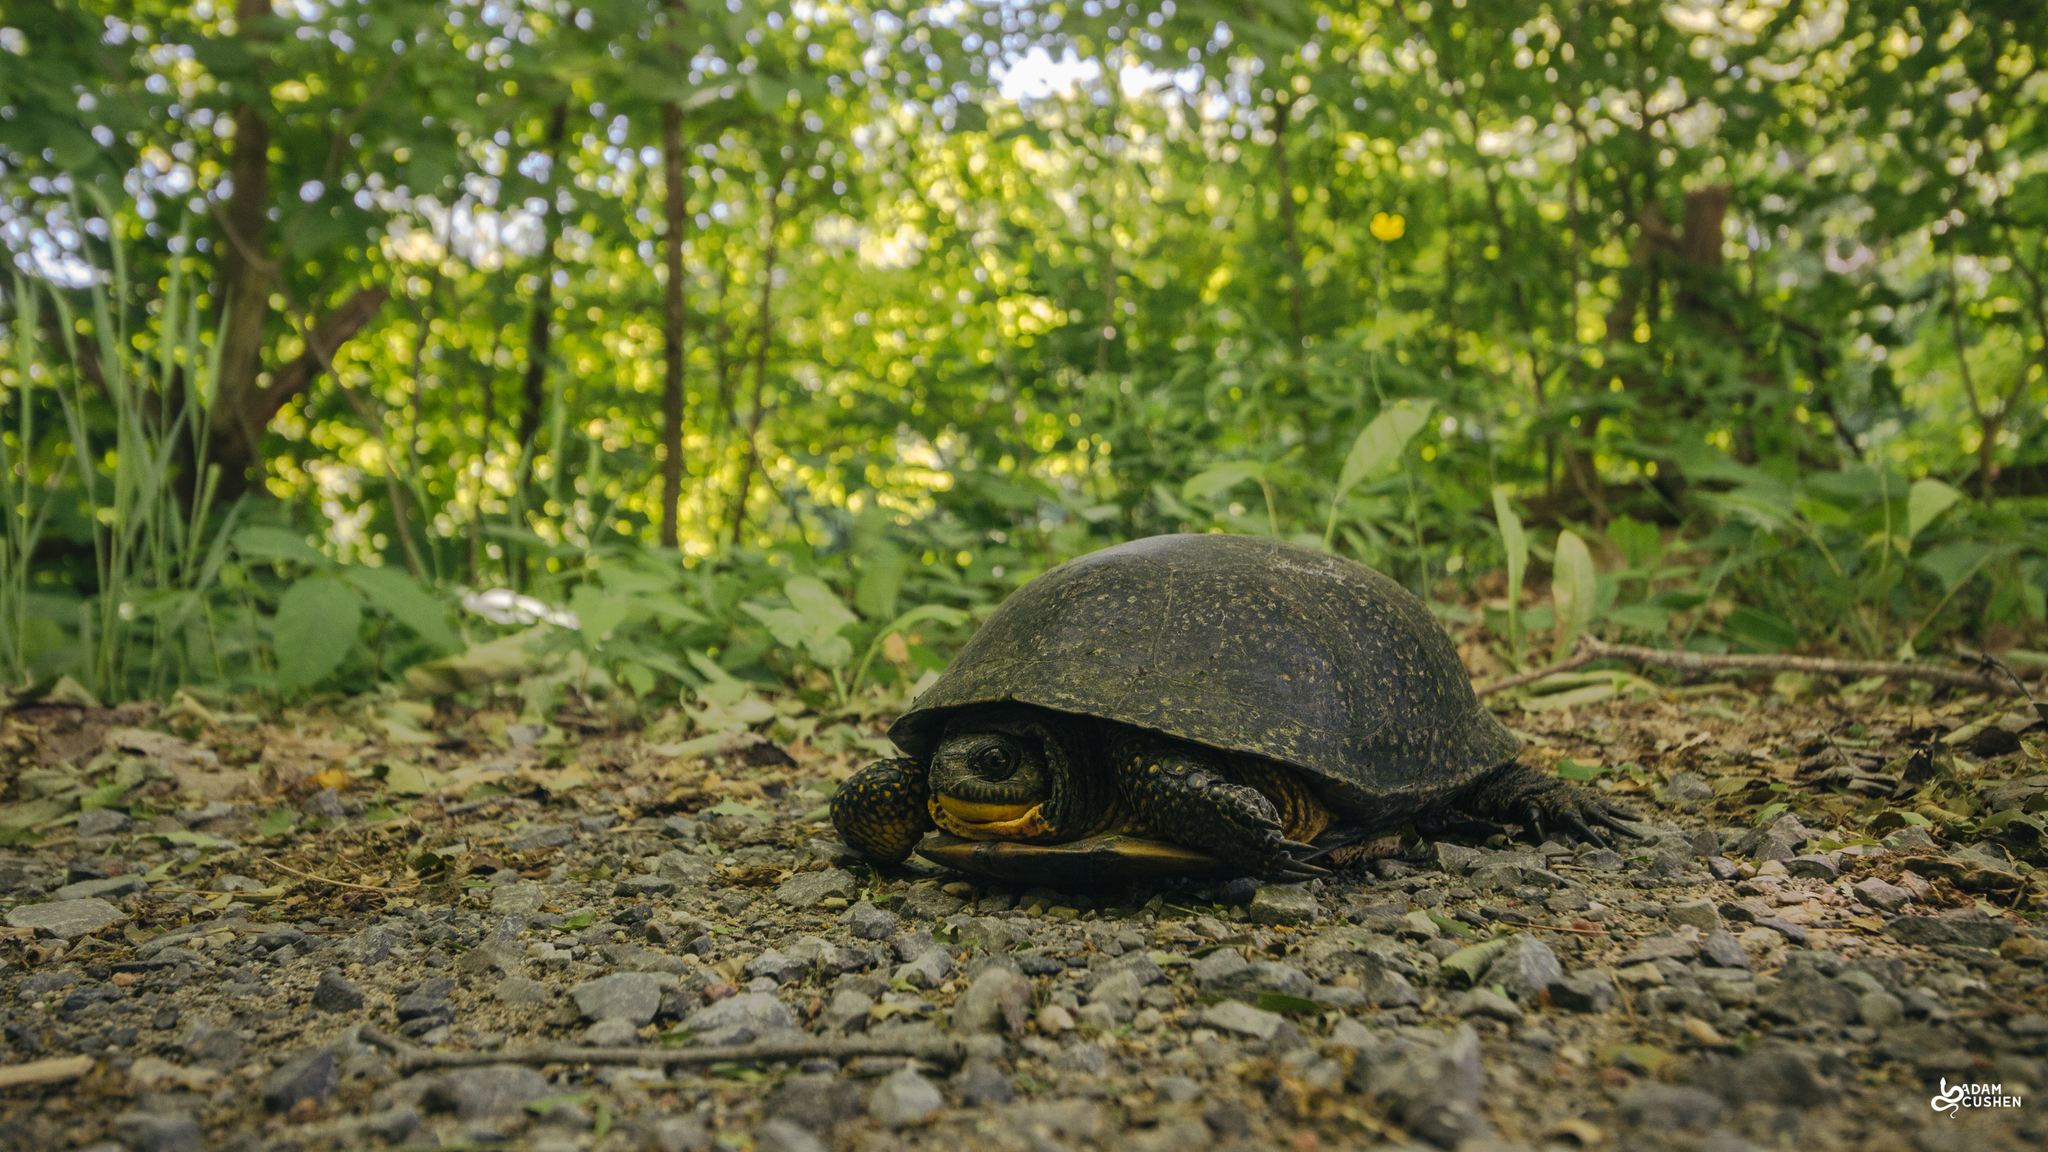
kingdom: Animalia
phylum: Chordata
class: Testudines
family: Emydidae
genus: Emys
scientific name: Emys blandingii
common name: Blanding's turtle
